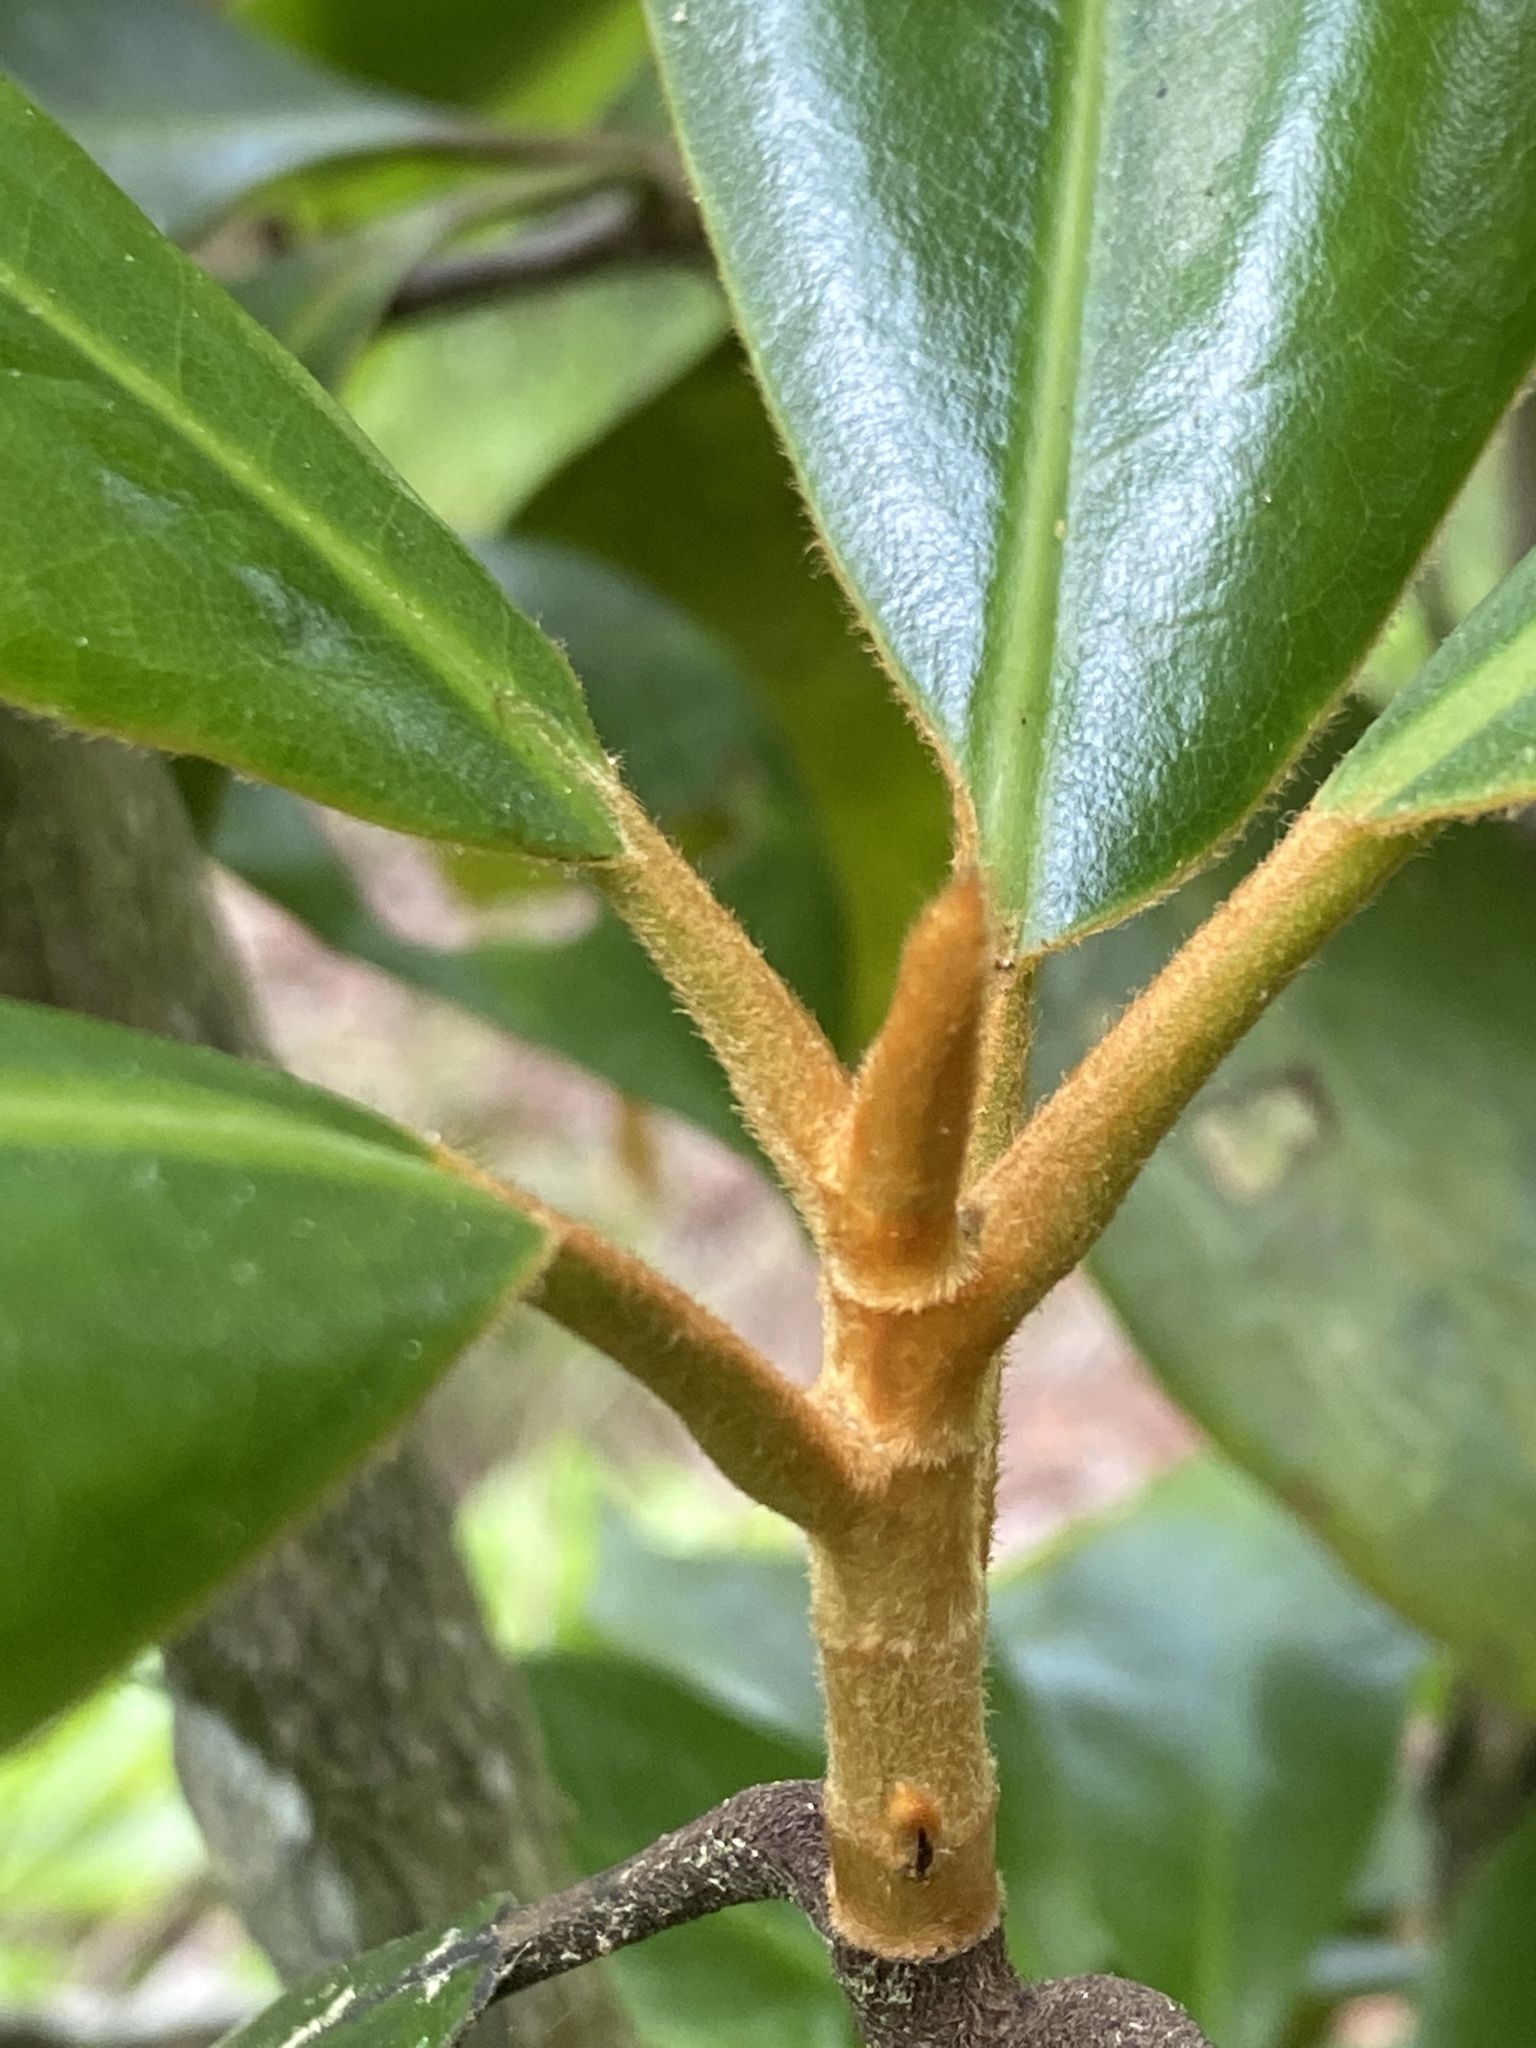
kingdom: Plantae
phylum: Tracheophyta
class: Magnoliopsida
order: Magnoliales
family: Magnoliaceae
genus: Magnolia
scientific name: Magnolia grandiflora
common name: Southern magnolia
